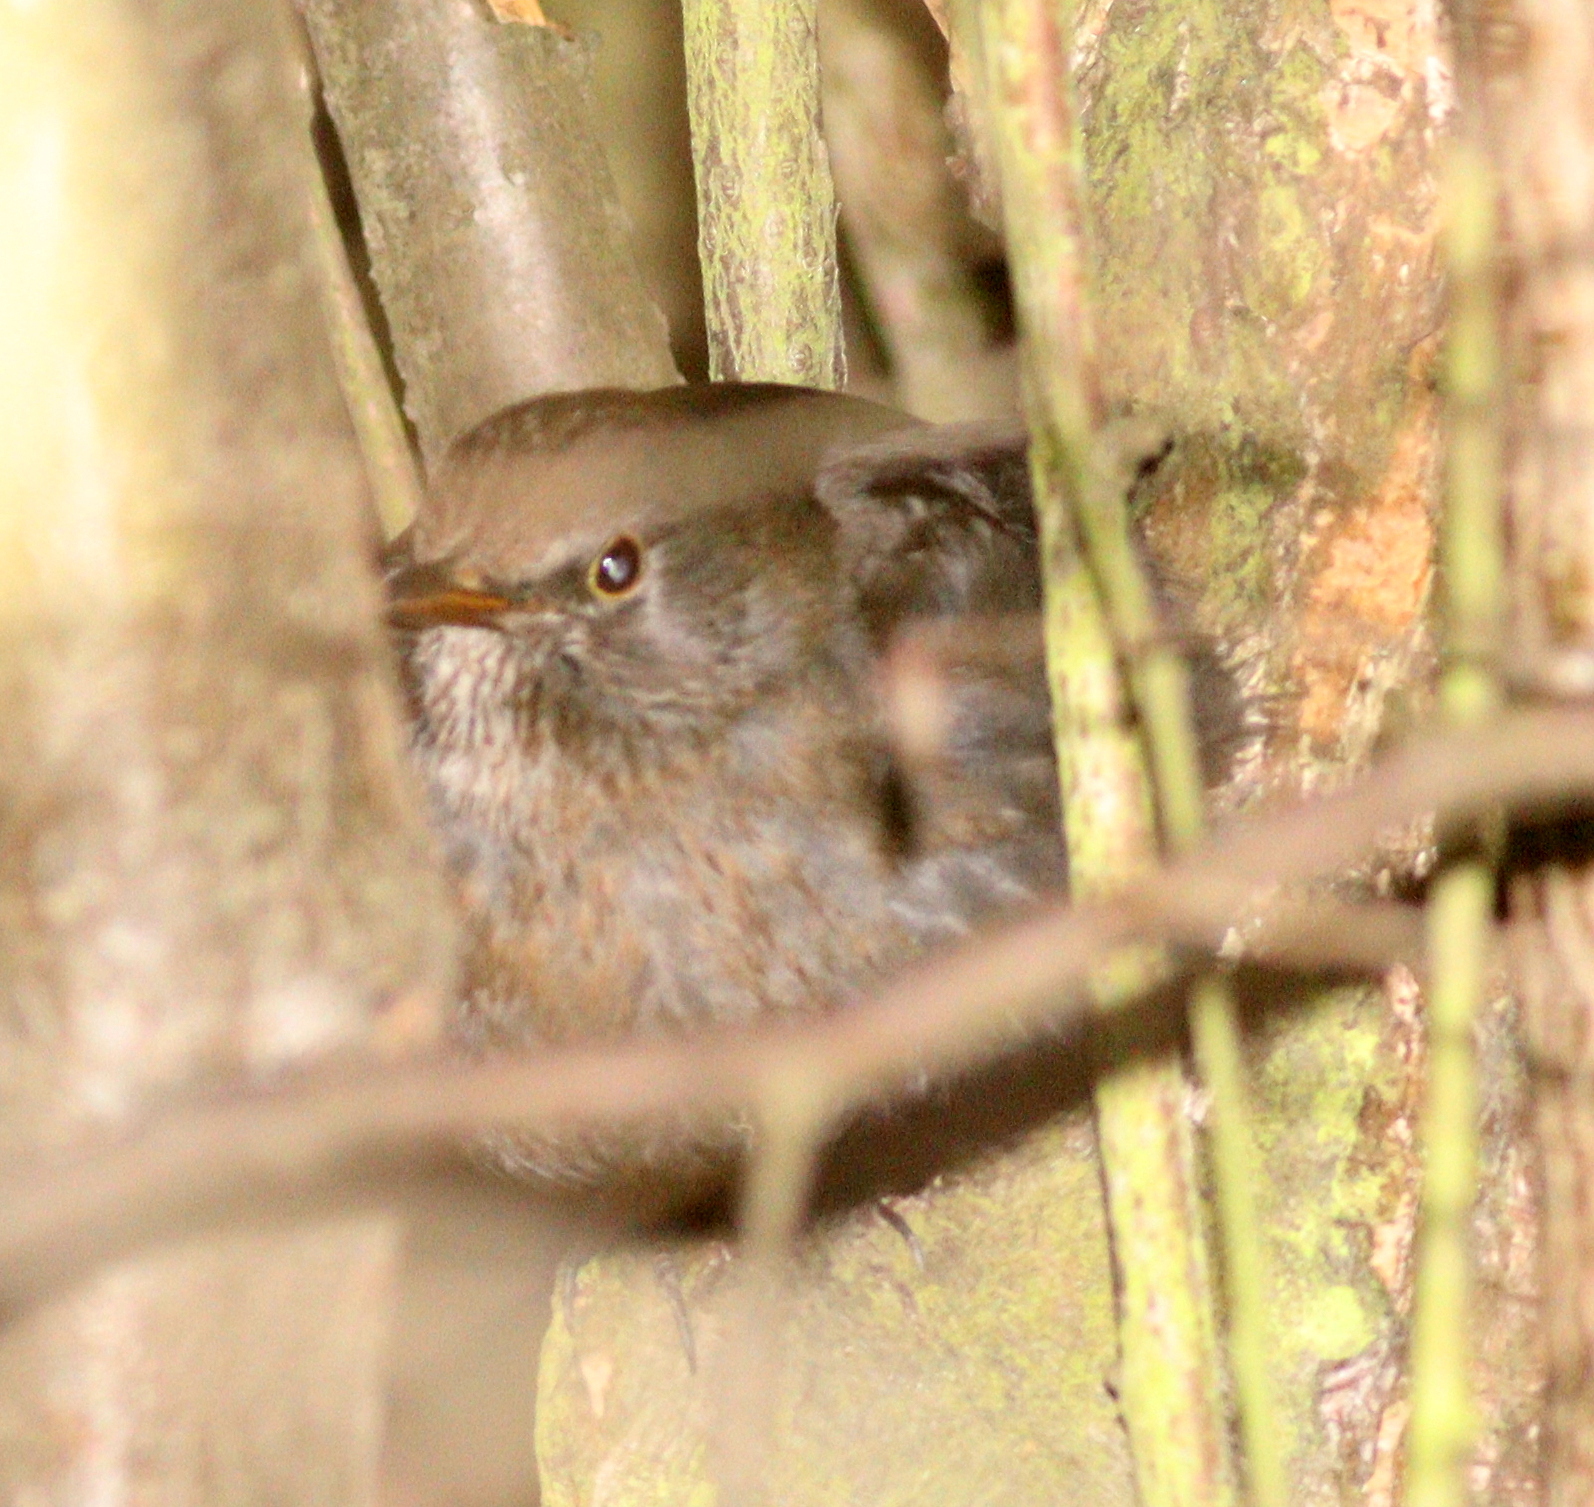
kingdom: Animalia
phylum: Chordata
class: Aves
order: Passeriformes
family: Turdidae
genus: Turdus
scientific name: Turdus merula
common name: Common blackbird
